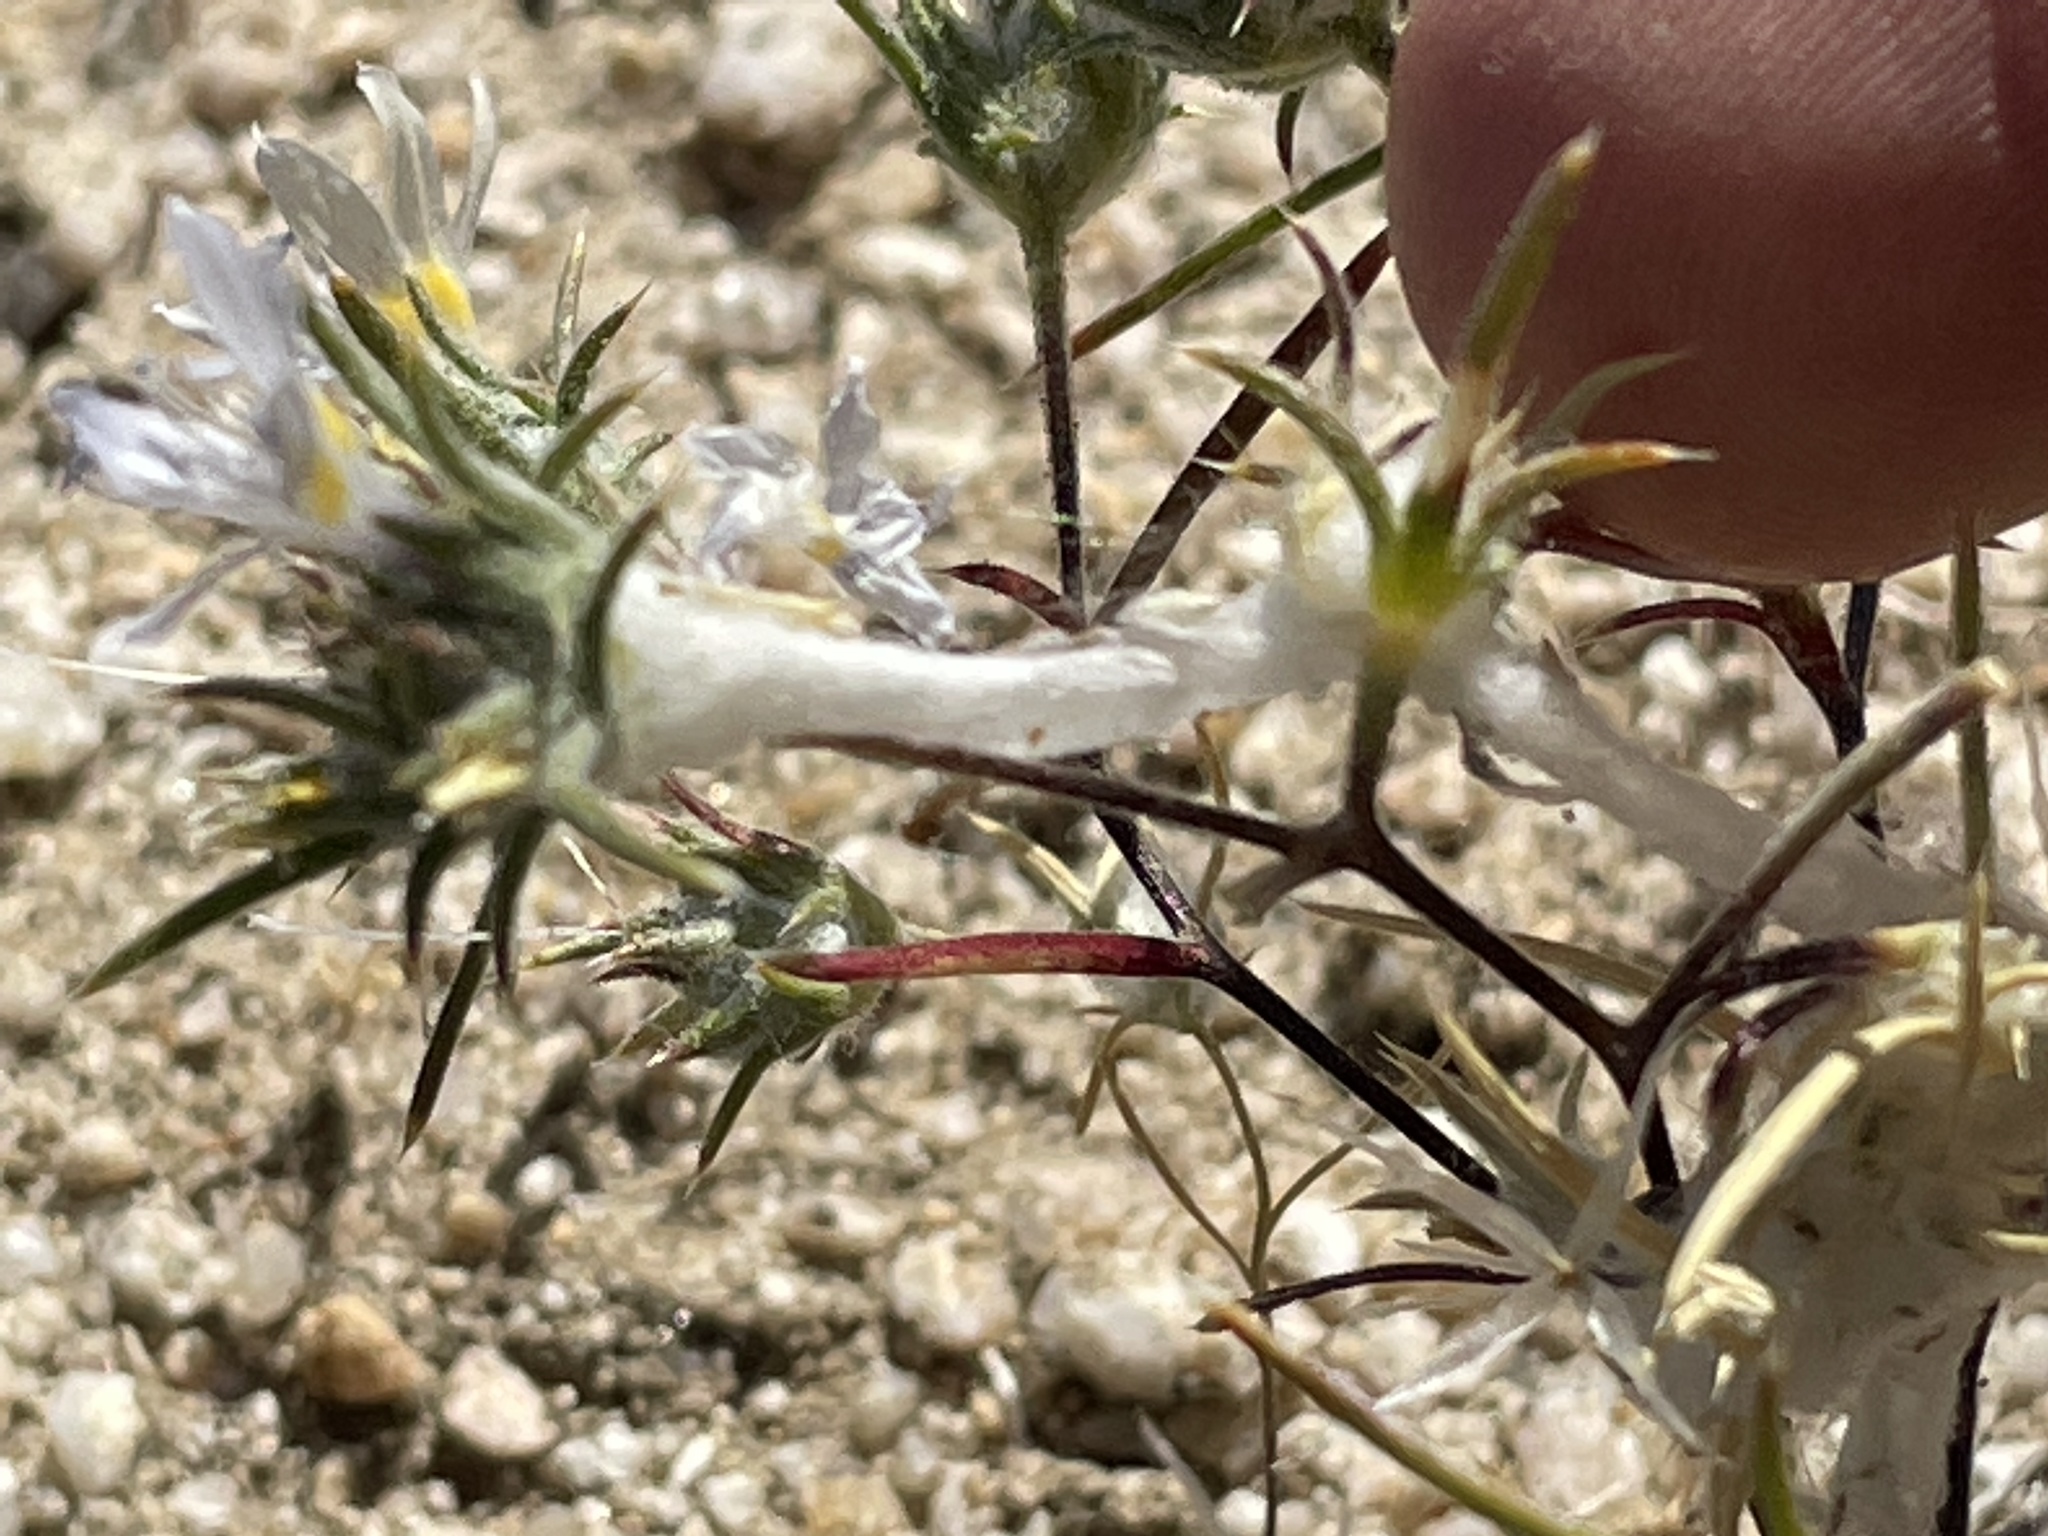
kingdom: Plantae
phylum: Tracheophyta
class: Magnoliopsida
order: Ericales
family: Polemoniaceae
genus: Eriastrum
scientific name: Eriastrum eremicum
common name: Desert eriastrum
